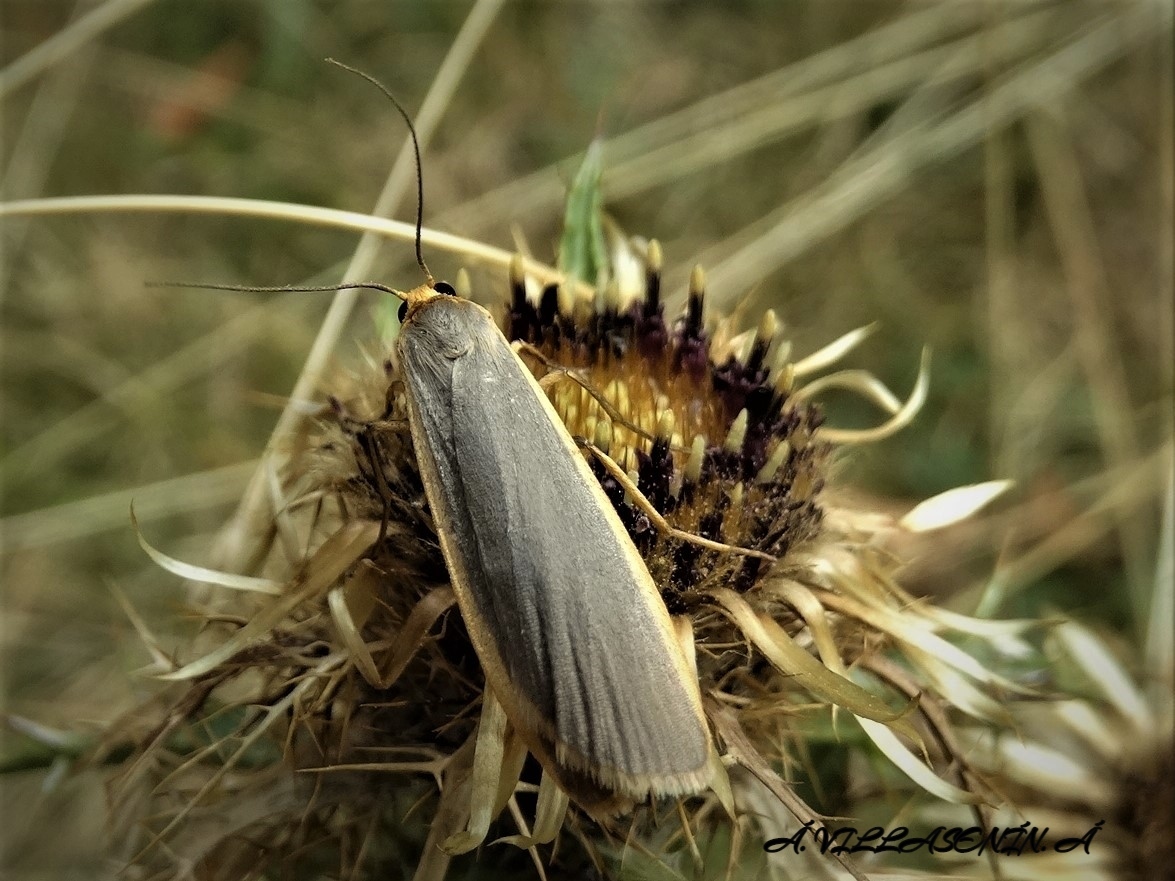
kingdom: Animalia
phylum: Arthropoda
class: Insecta
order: Lepidoptera
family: Erebidae
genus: Nyea
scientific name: Nyea lurideola
